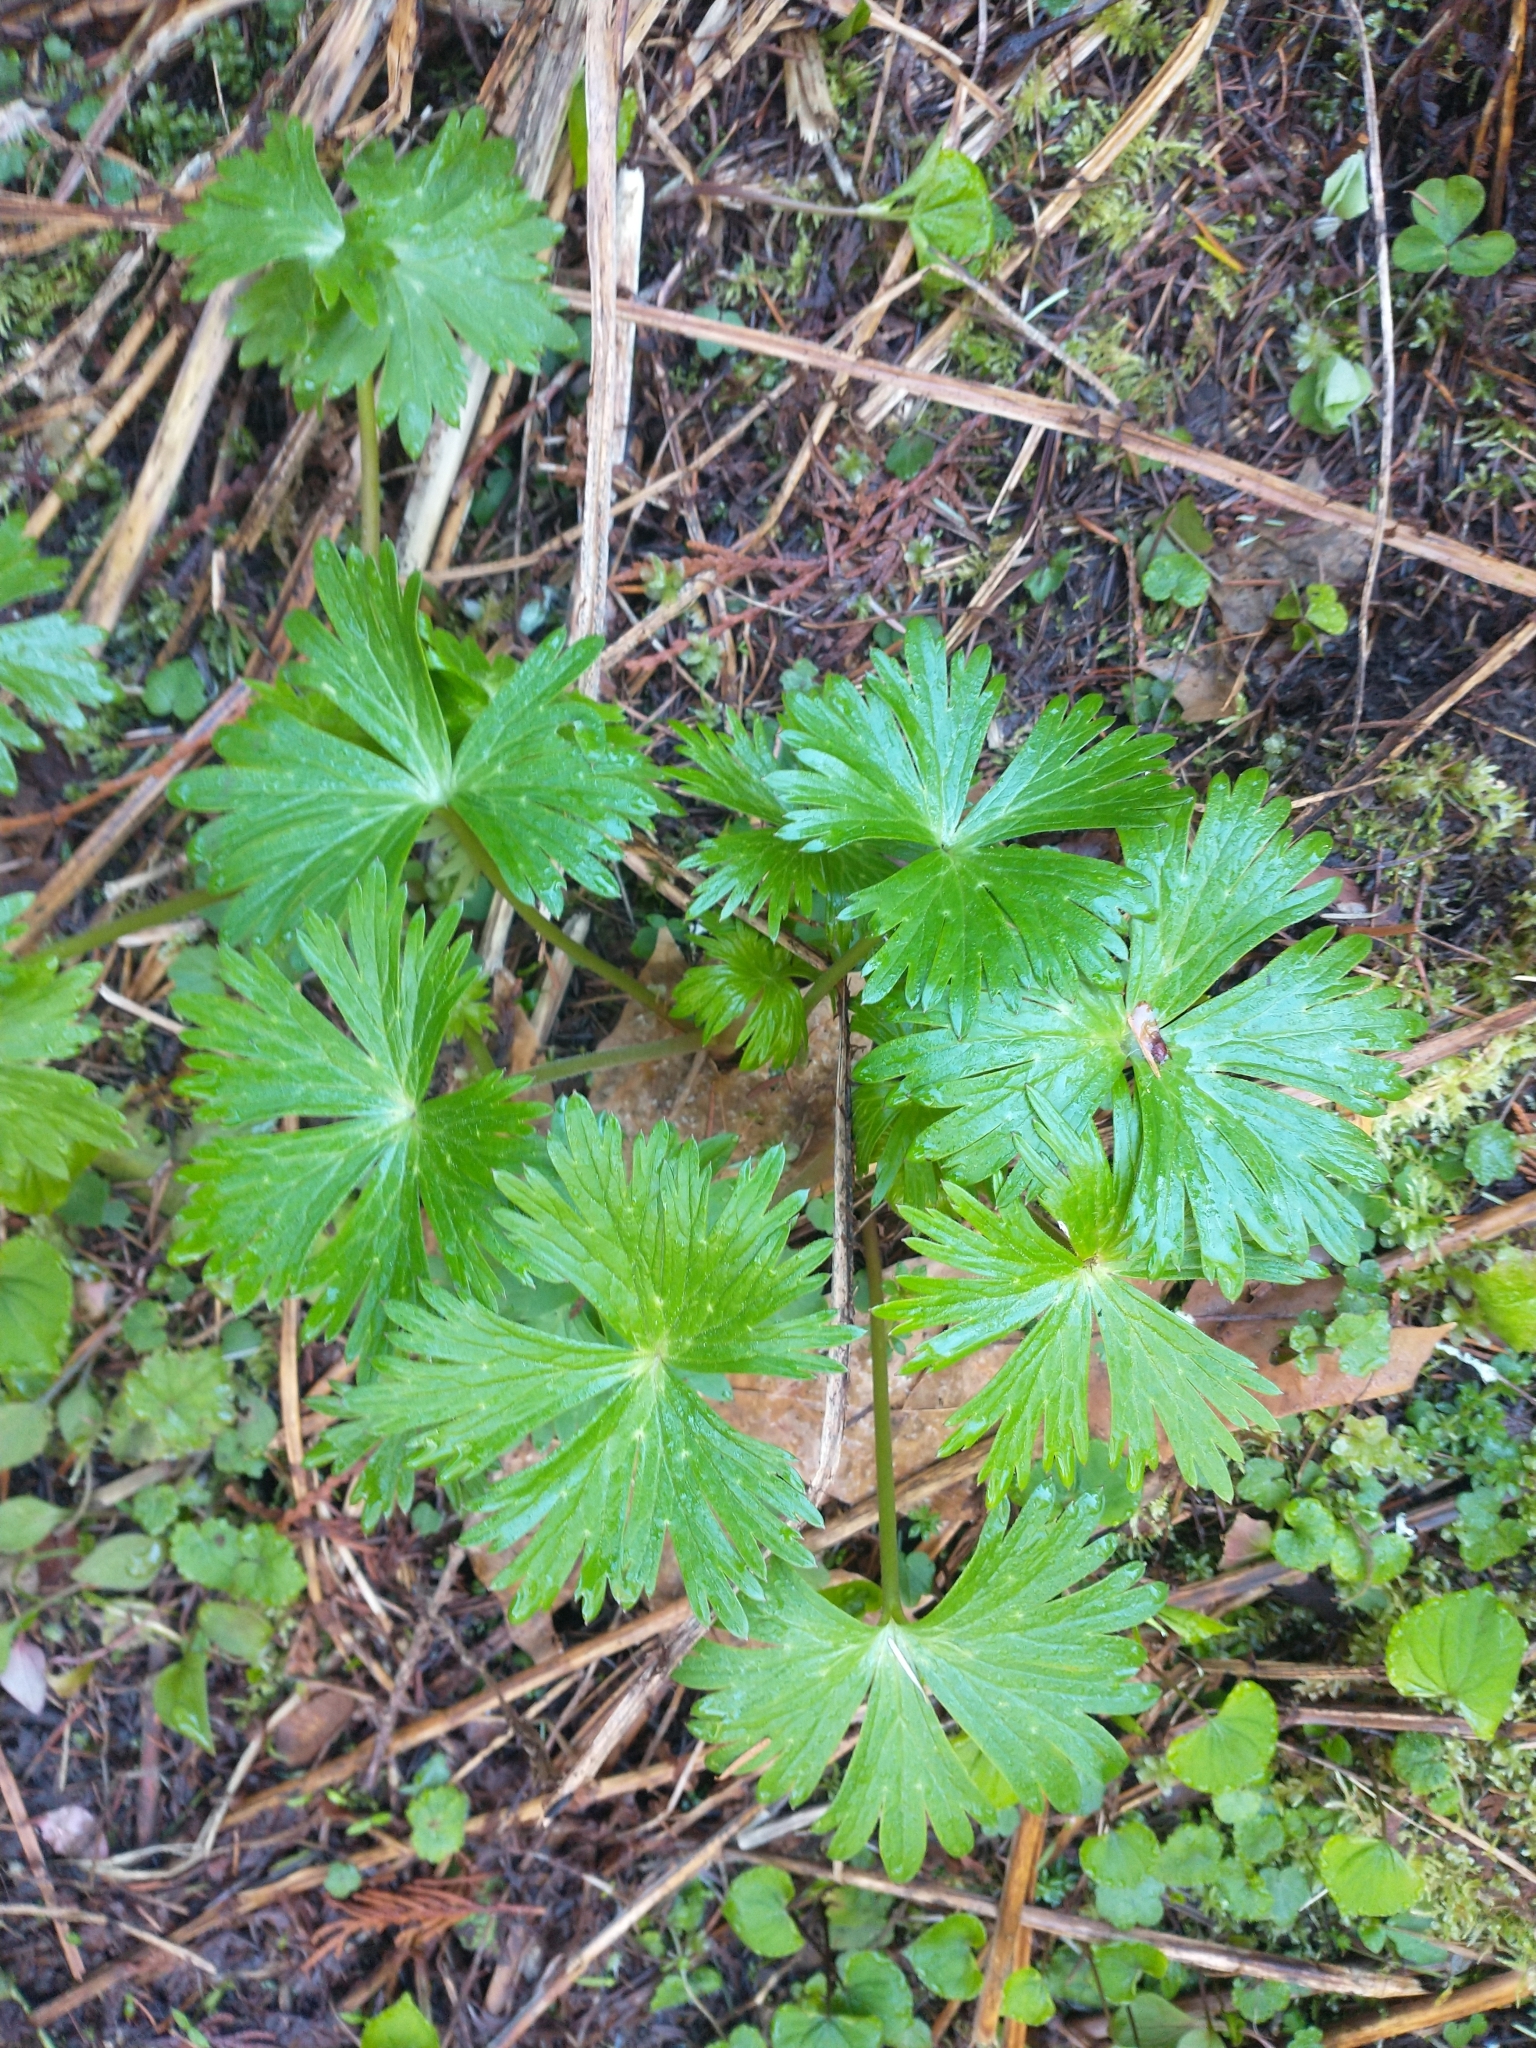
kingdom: Plantae
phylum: Tracheophyta
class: Magnoliopsida
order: Ranunculales
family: Ranunculaceae
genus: Delphinium
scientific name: Delphinium trolliifolium
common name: Cow-poison
